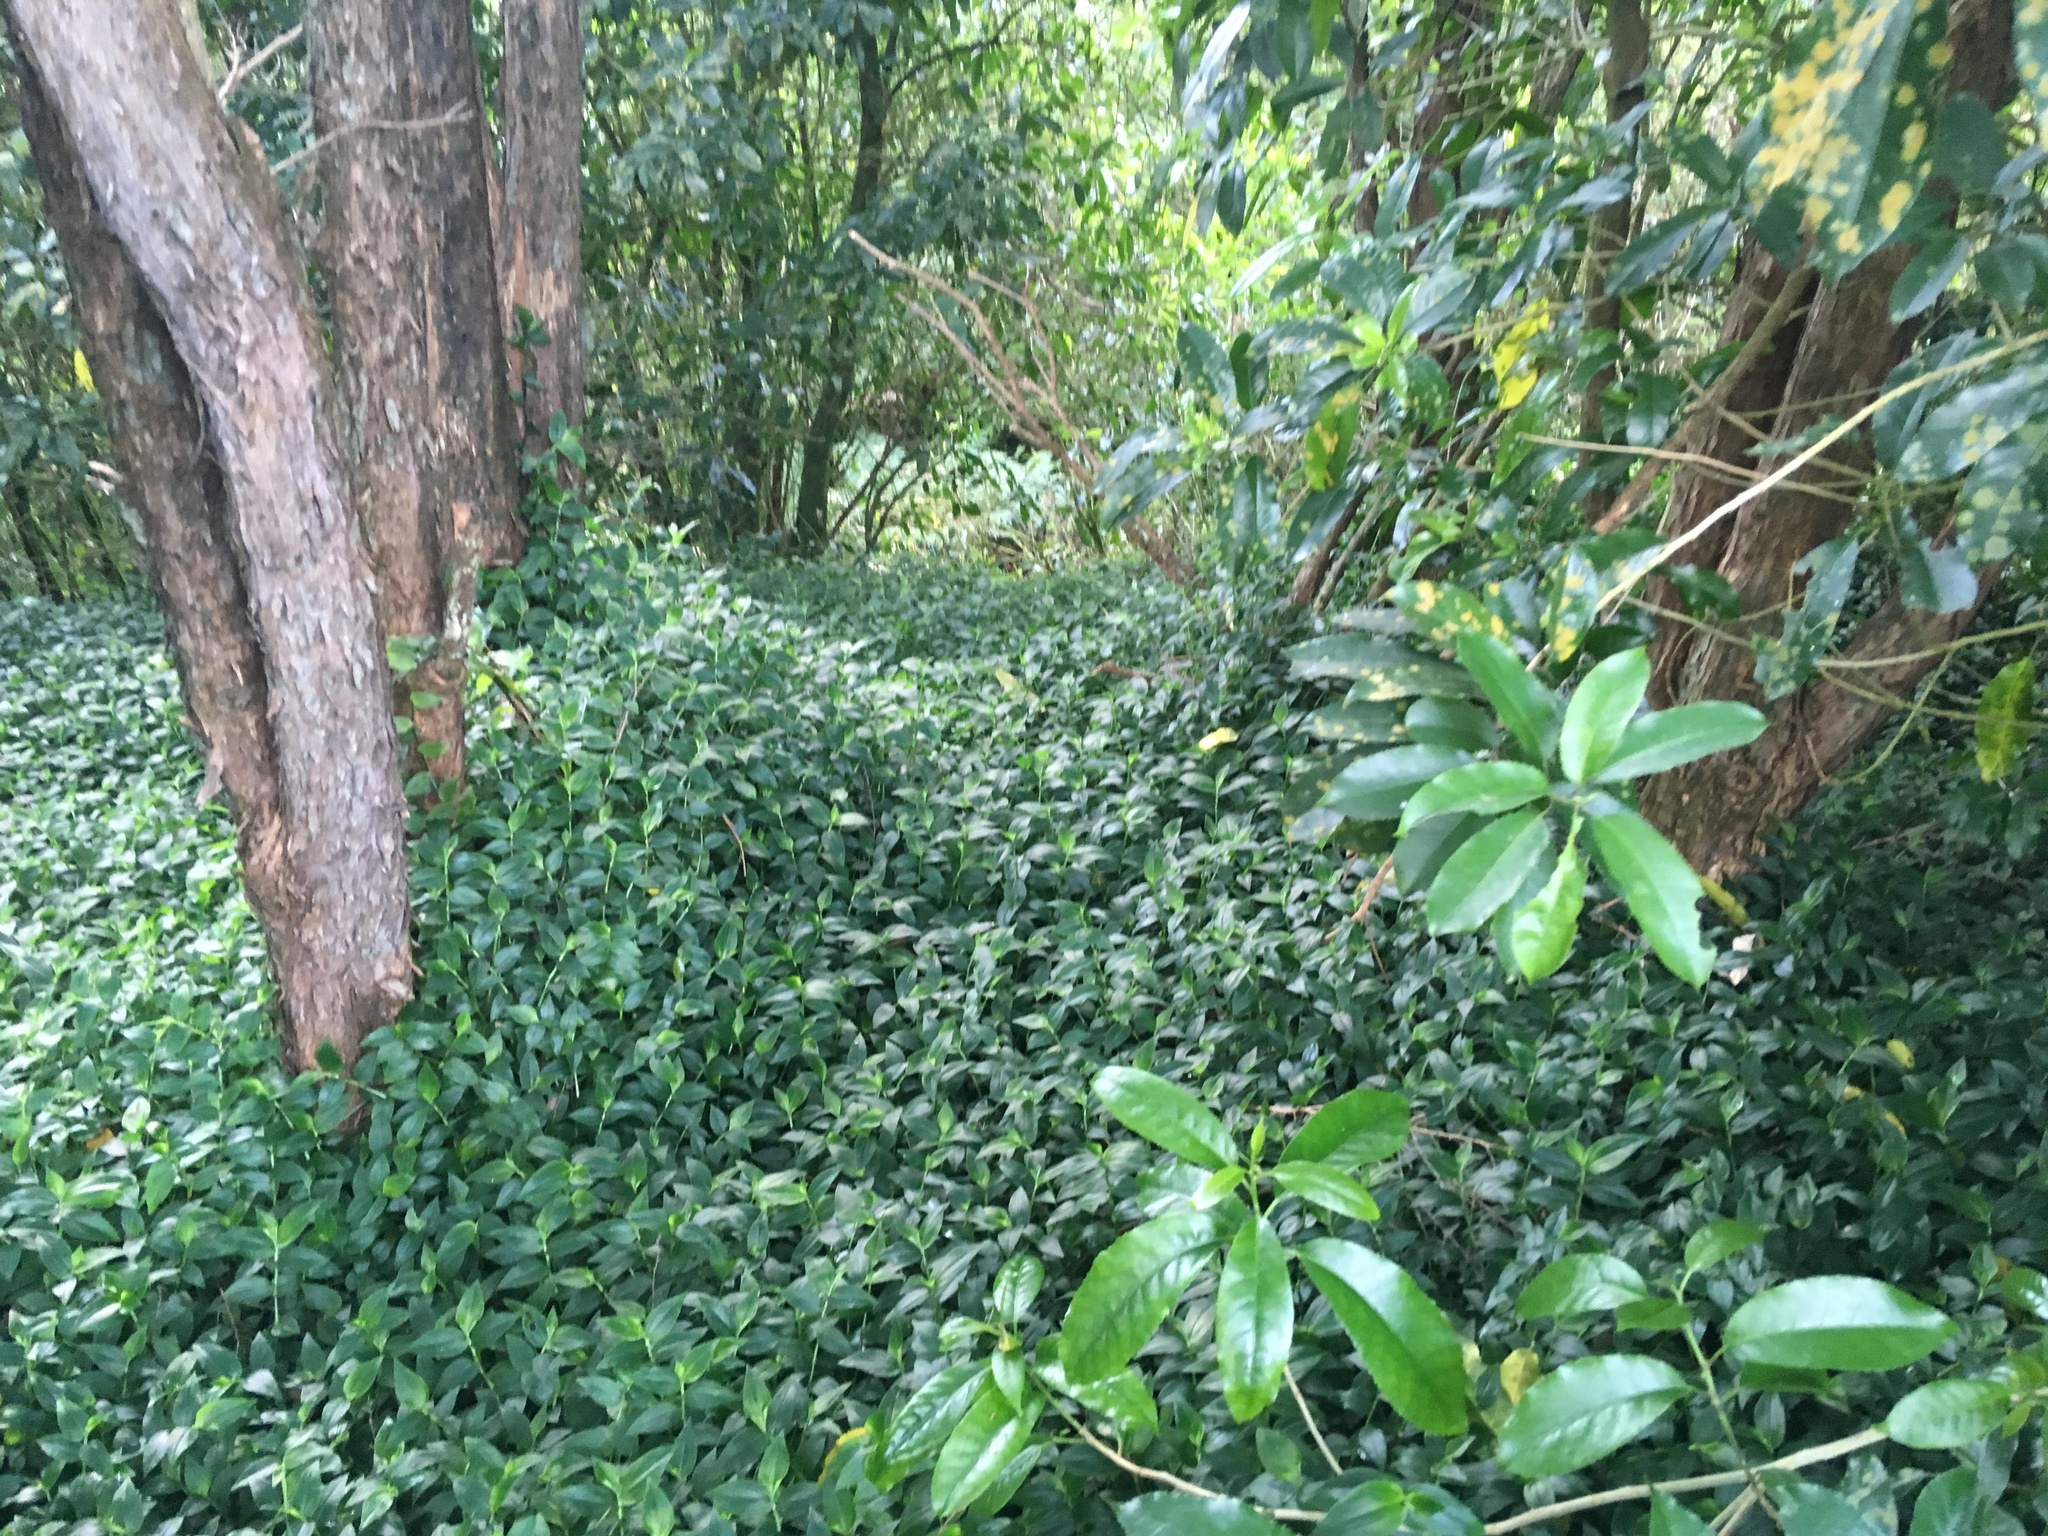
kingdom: Plantae
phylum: Tracheophyta
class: Magnoliopsida
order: Malpighiales
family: Violaceae
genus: Melicytus
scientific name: Melicytus ramiflorus
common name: Mahoe
